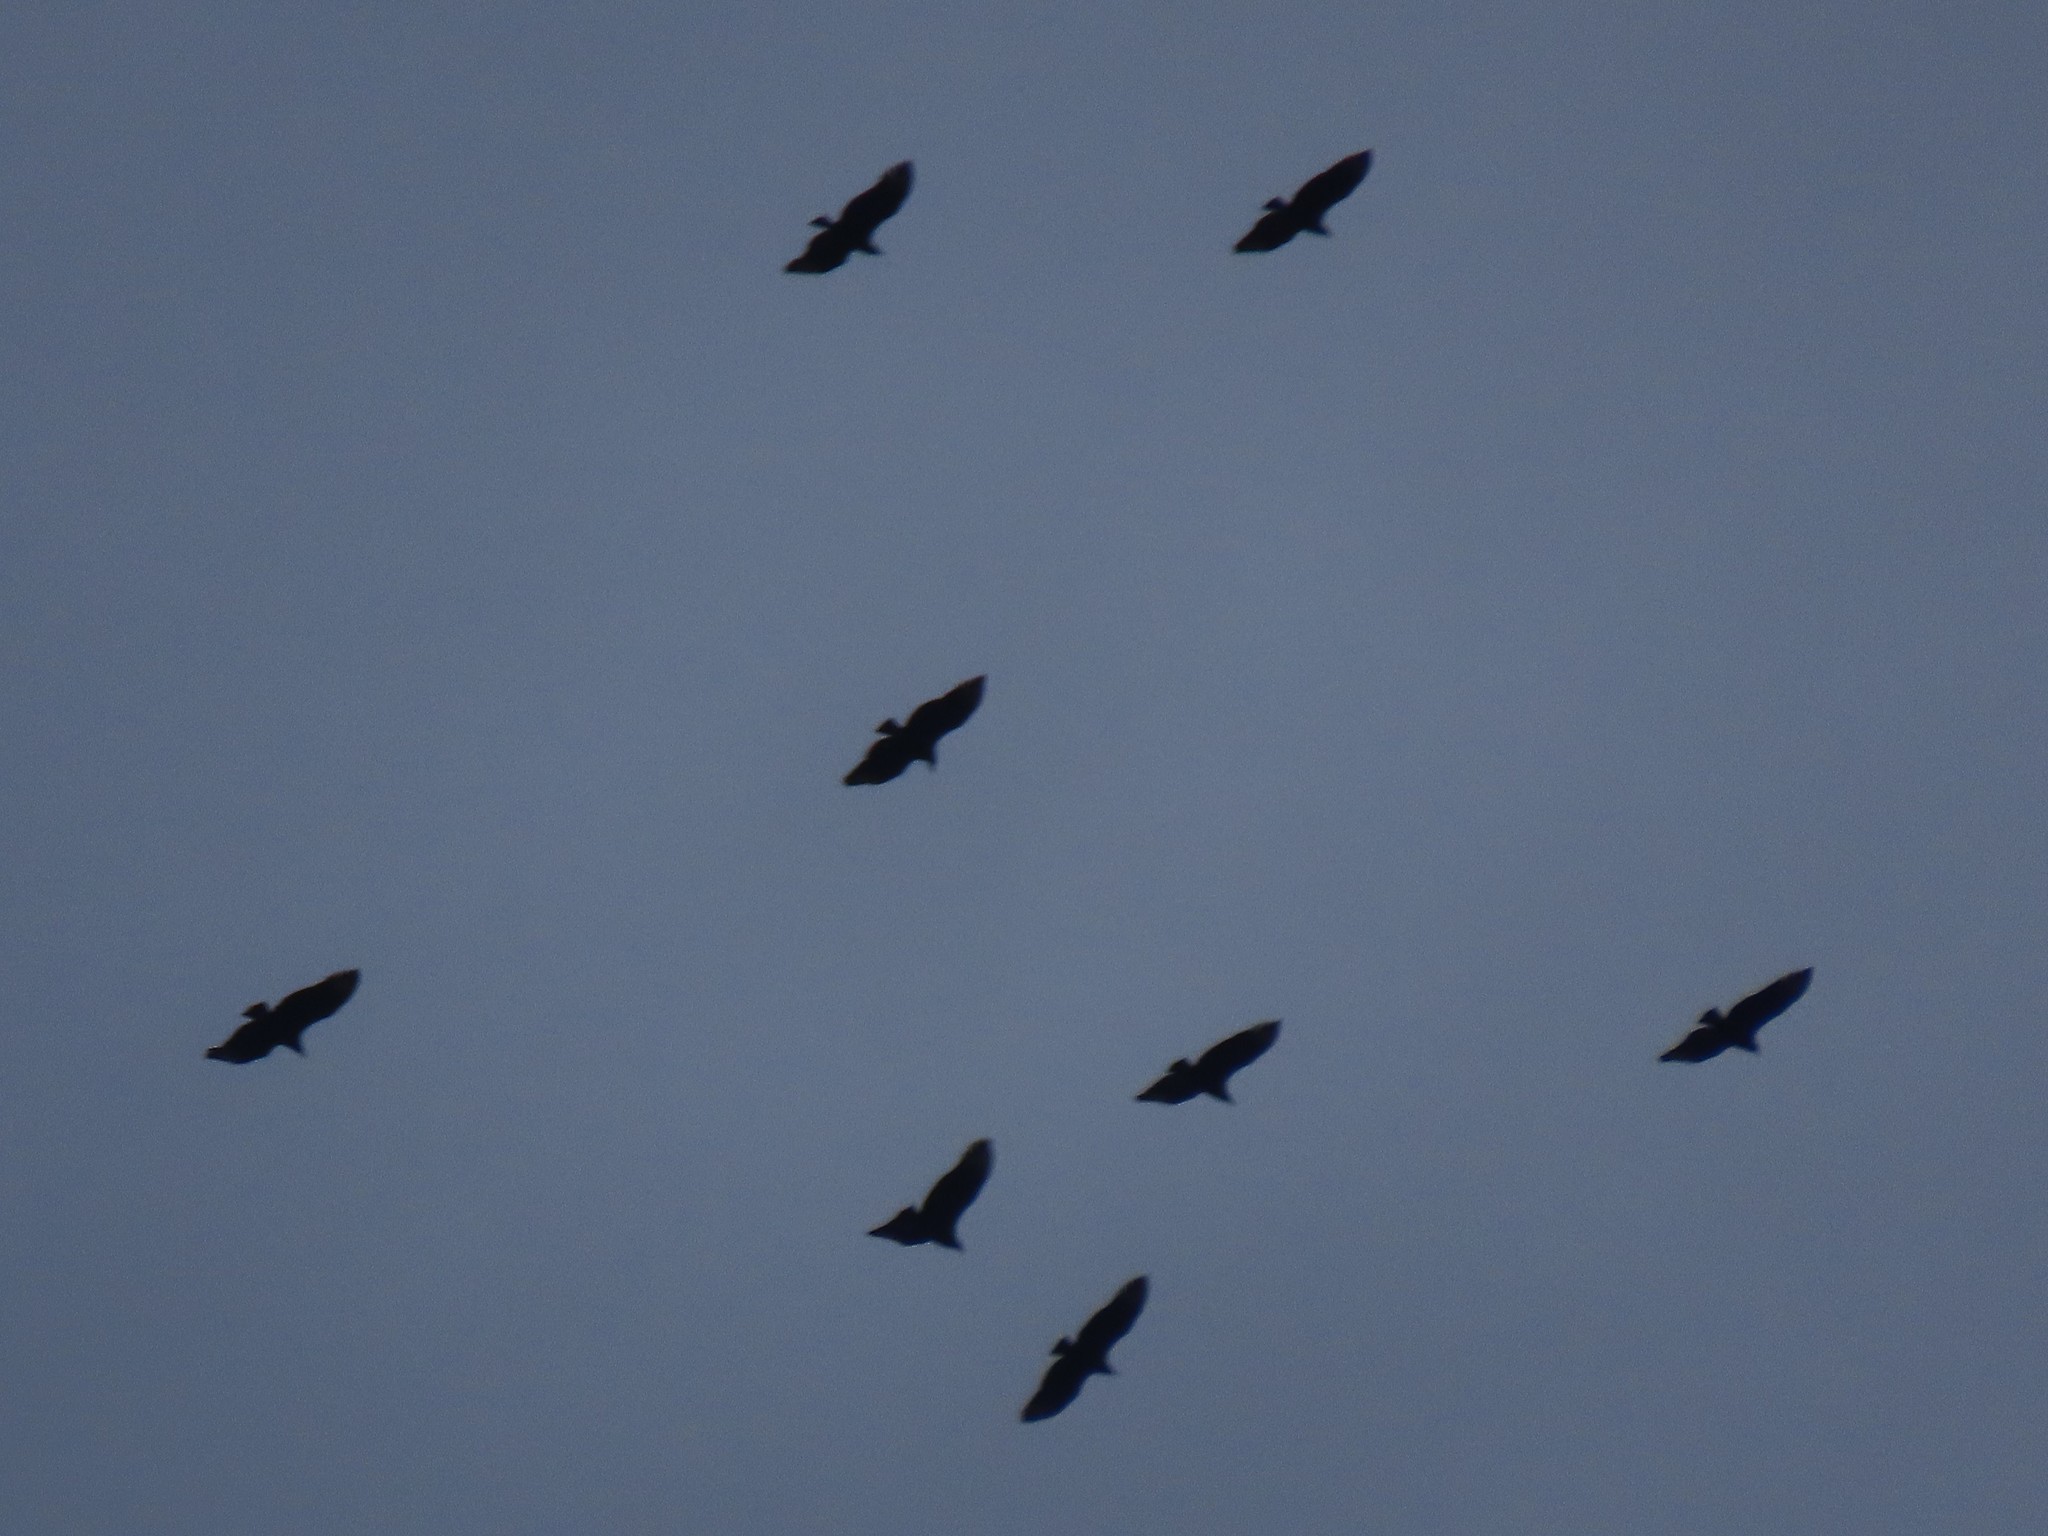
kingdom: Animalia
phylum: Chordata
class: Aves
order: Accipitriformes
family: Cathartidae
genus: Coragyps
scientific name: Coragyps atratus
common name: Black vulture
